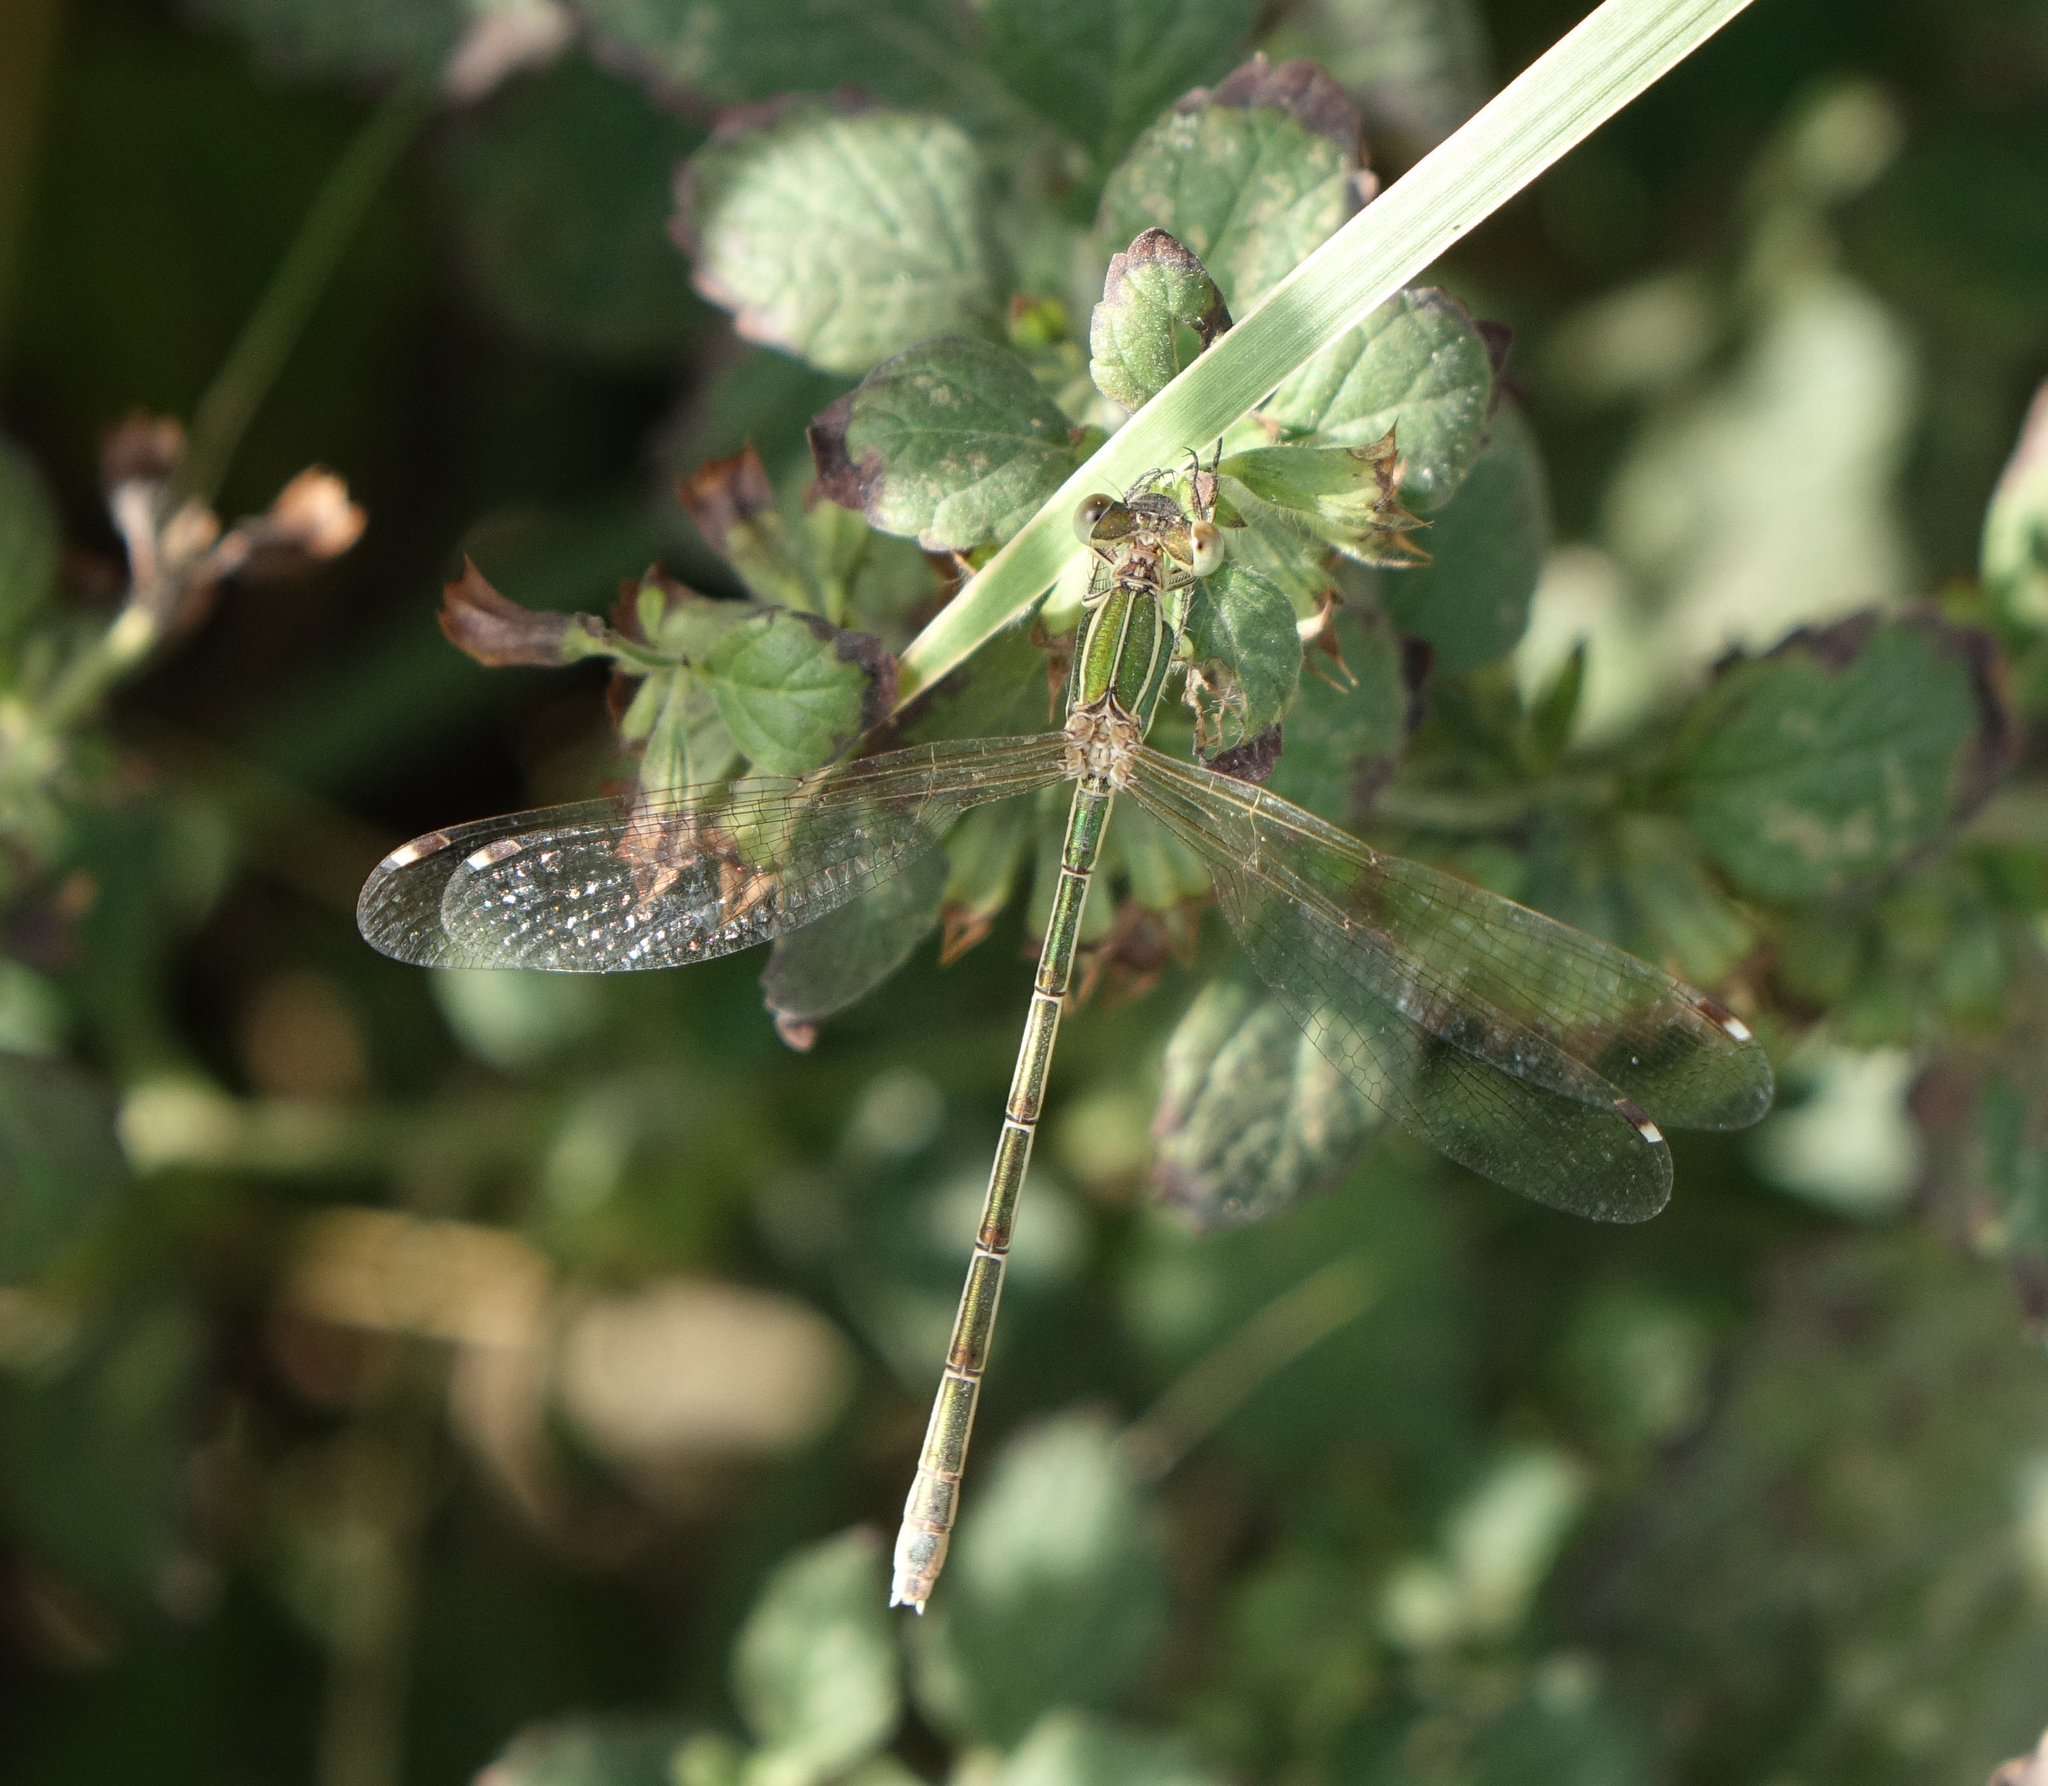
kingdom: Animalia
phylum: Arthropoda
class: Insecta
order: Odonata
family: Lestidae
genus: Lestes
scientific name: Lestes barbarus
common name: Migrant spreadwing
